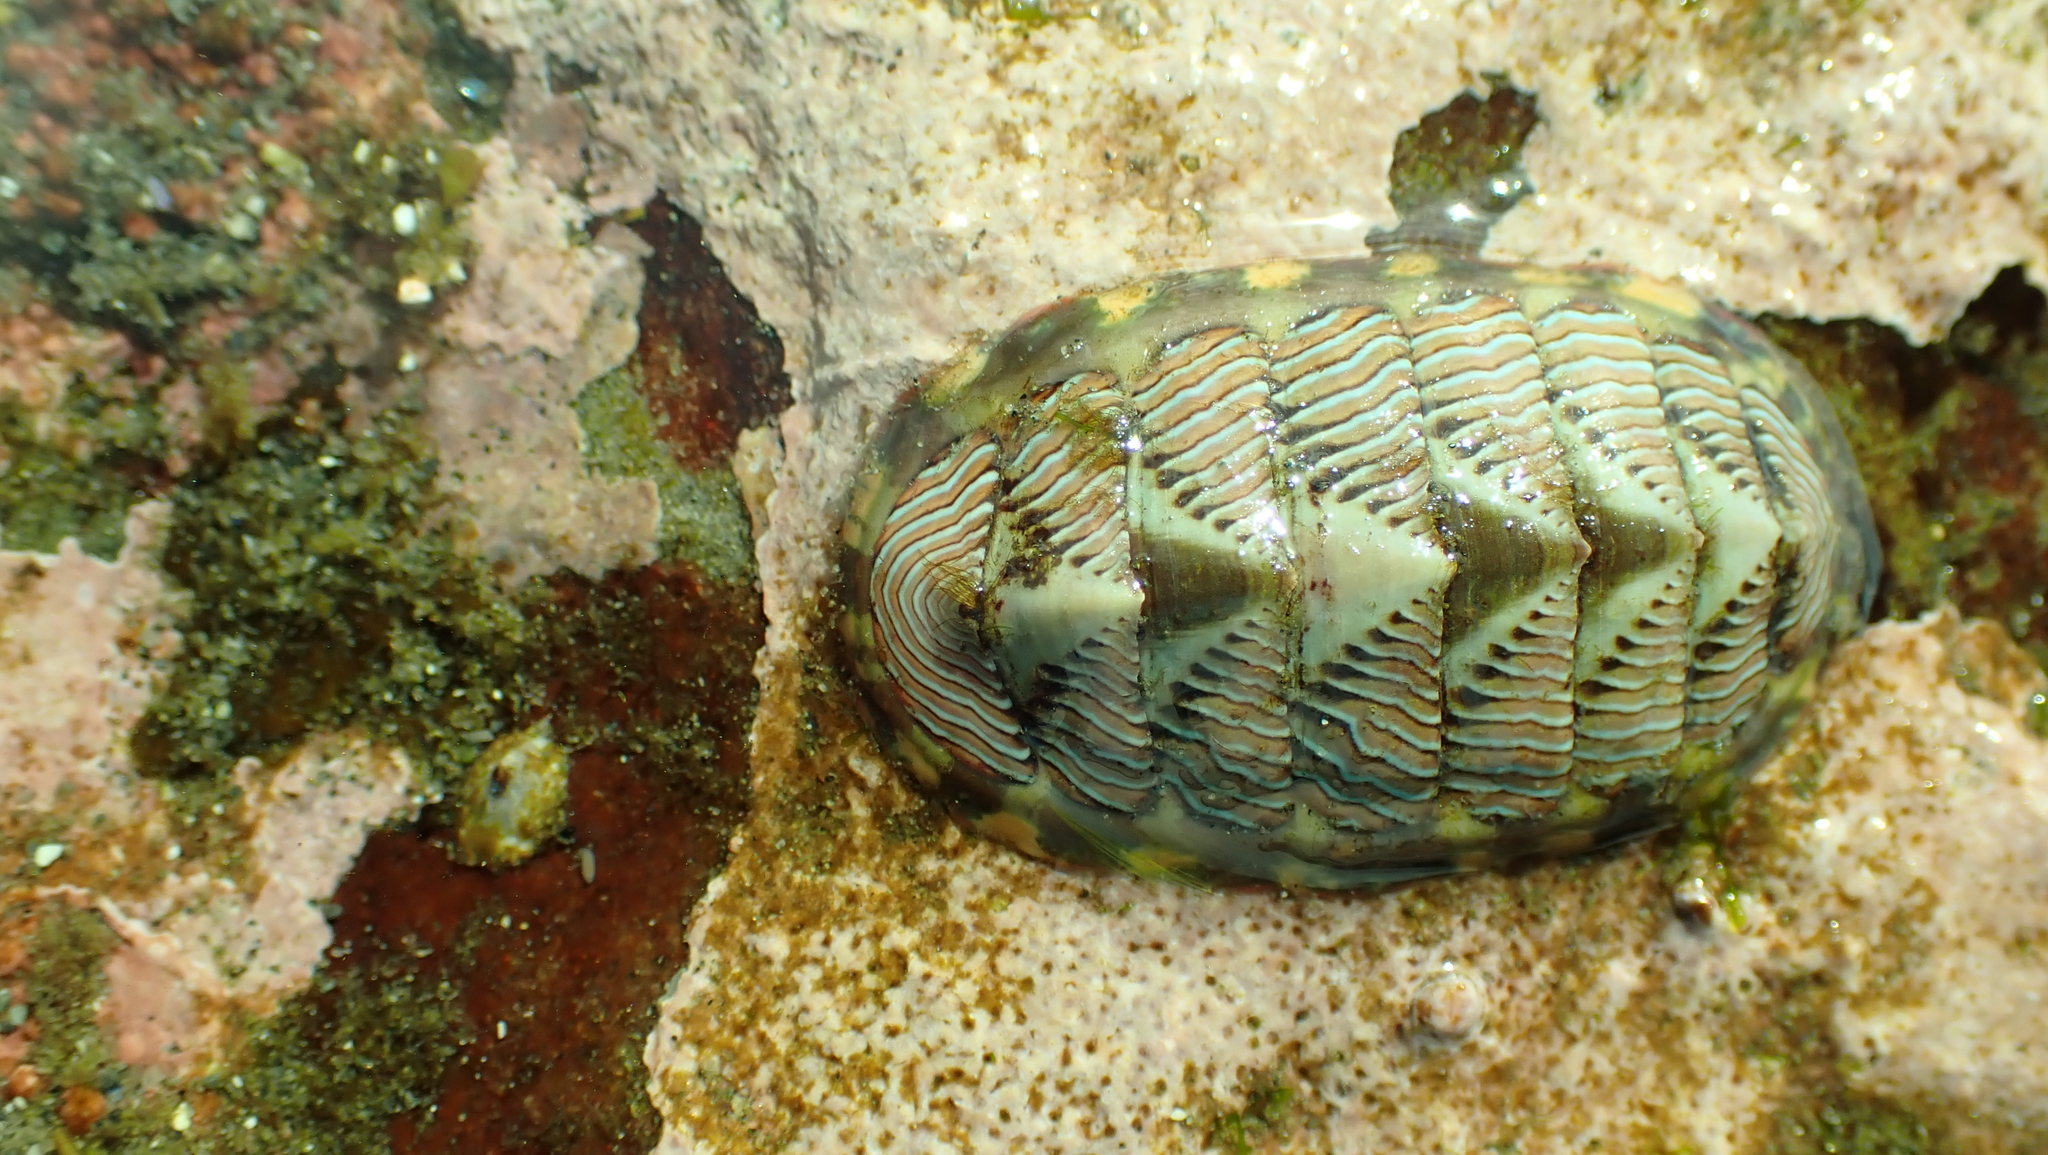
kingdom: Animalia
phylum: Mollusca
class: Polyplacophora
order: Chitonida
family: Tonicellidae
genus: Tonicella
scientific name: Tonicella lineata
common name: Lined chiton
